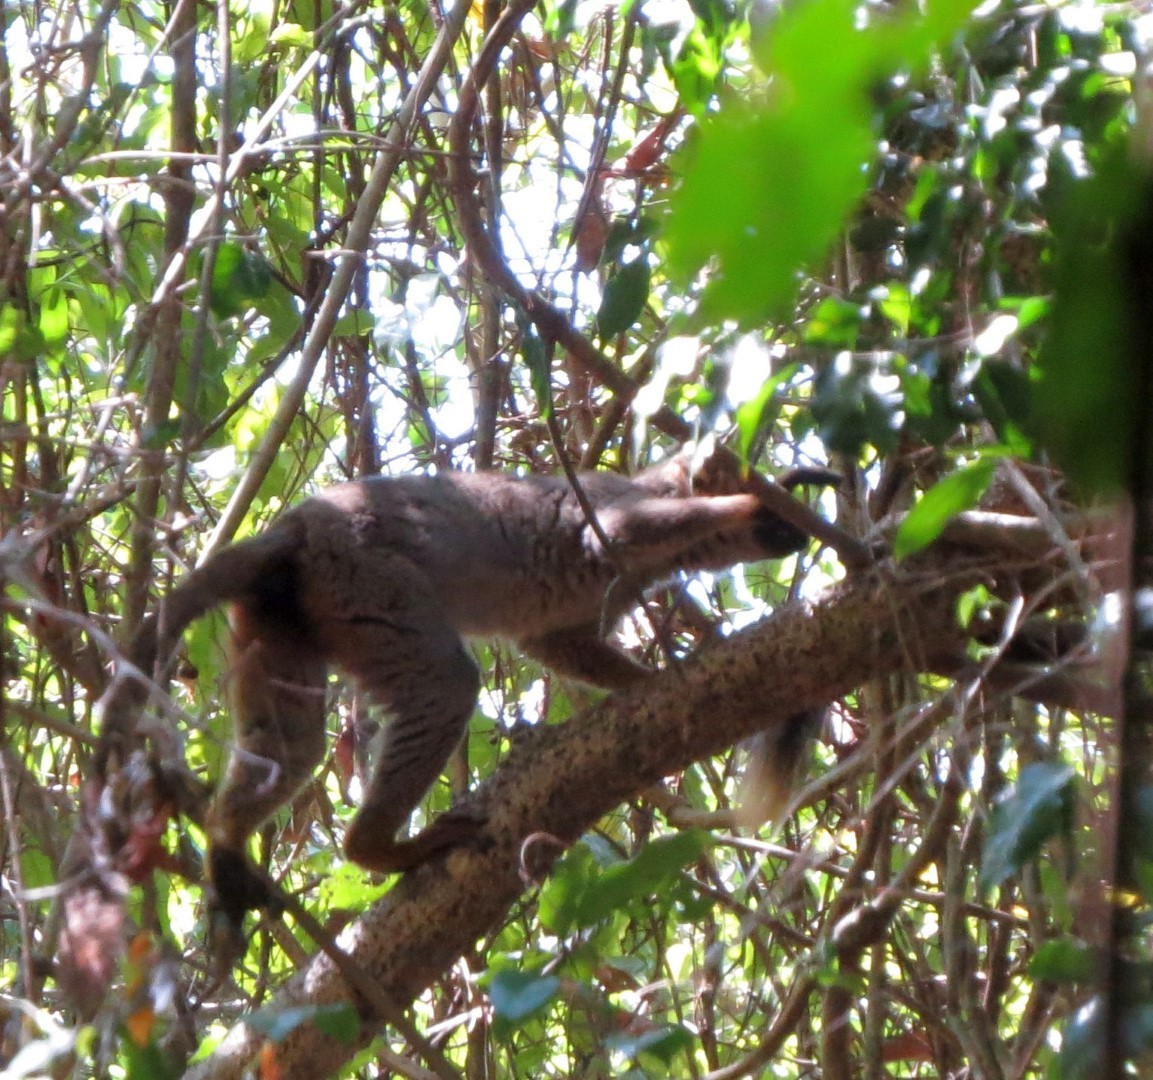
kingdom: Animalia
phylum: Chordata
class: Mammalia
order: Primates
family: Lemuridae
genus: Eulemur
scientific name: Eulemur rufus
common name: Red-fronted lemur
